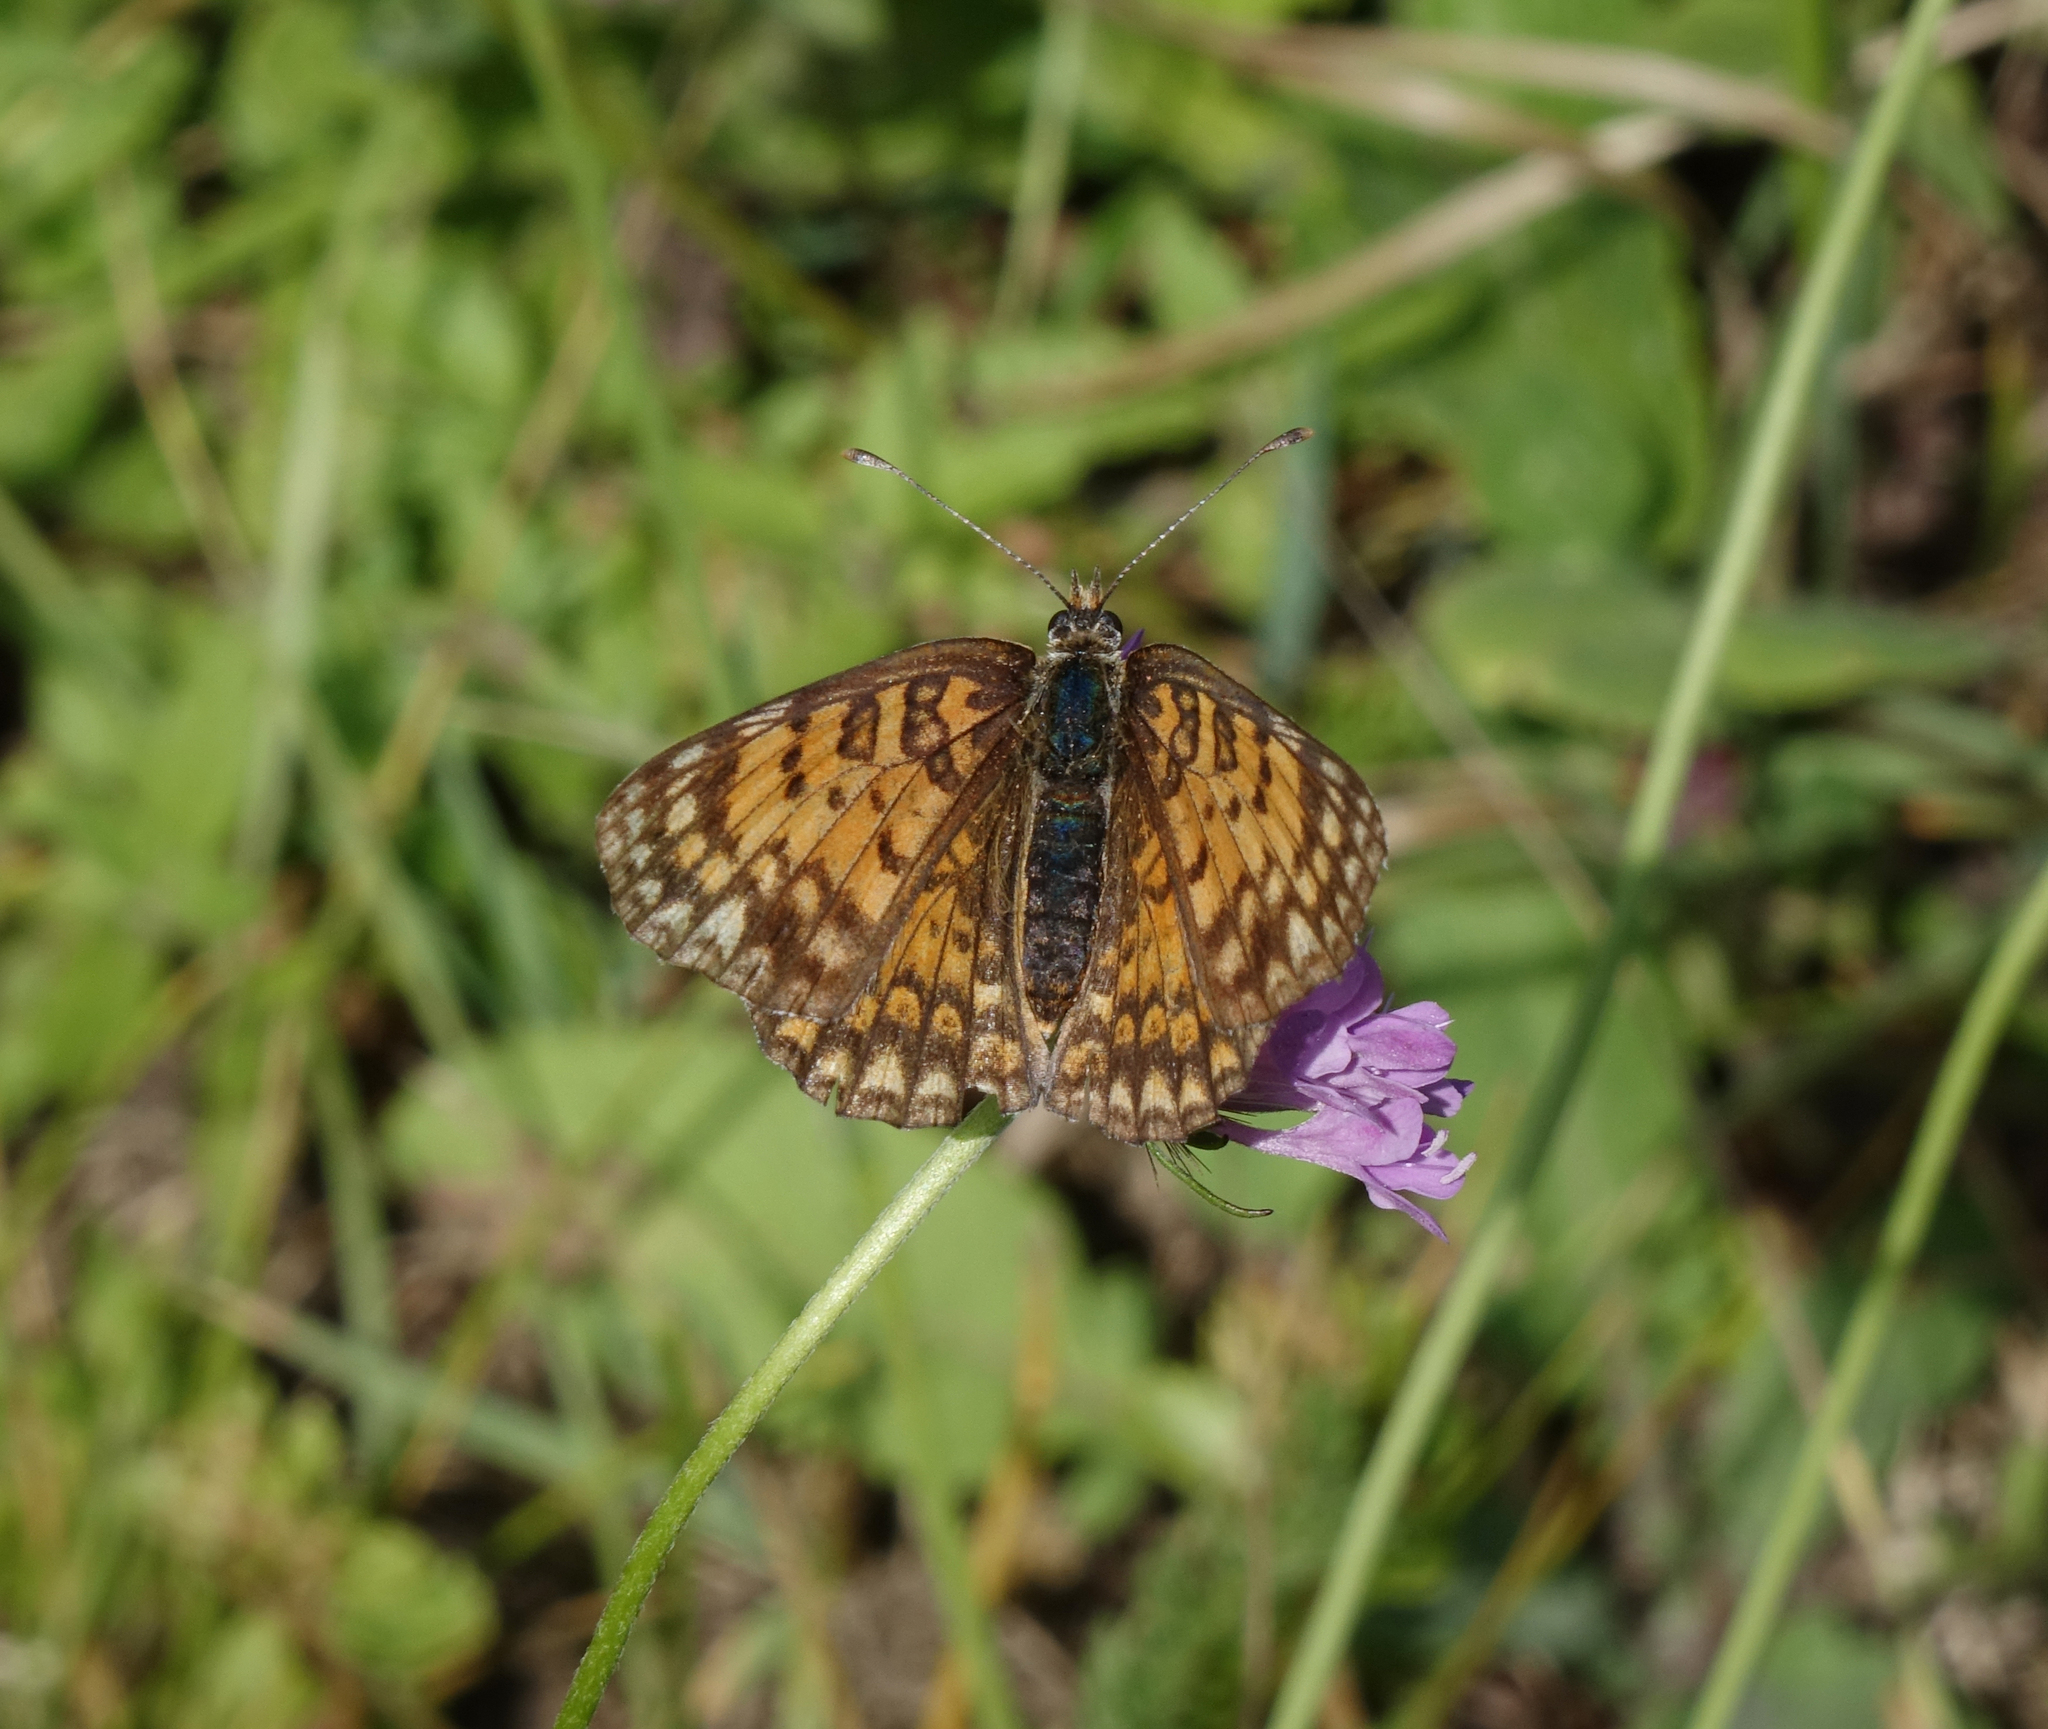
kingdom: Animalia
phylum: Arthropoda
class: Insecta
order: Lepidoptera
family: Nymphalidae
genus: Melitaea
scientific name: Melitaea phoebe
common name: Knapweed fritillary
